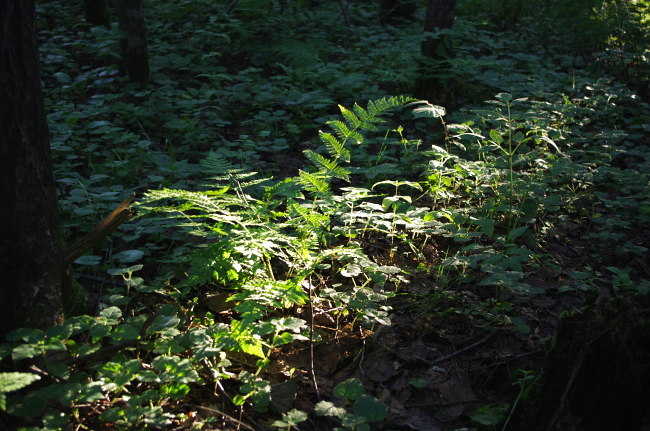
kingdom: Plantae
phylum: Tracheophyta
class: Polypodiopsida
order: Polypodiales
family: Dryopteridaceae
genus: Dryopteris
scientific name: Dryopteris filix-mas
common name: Male fern
